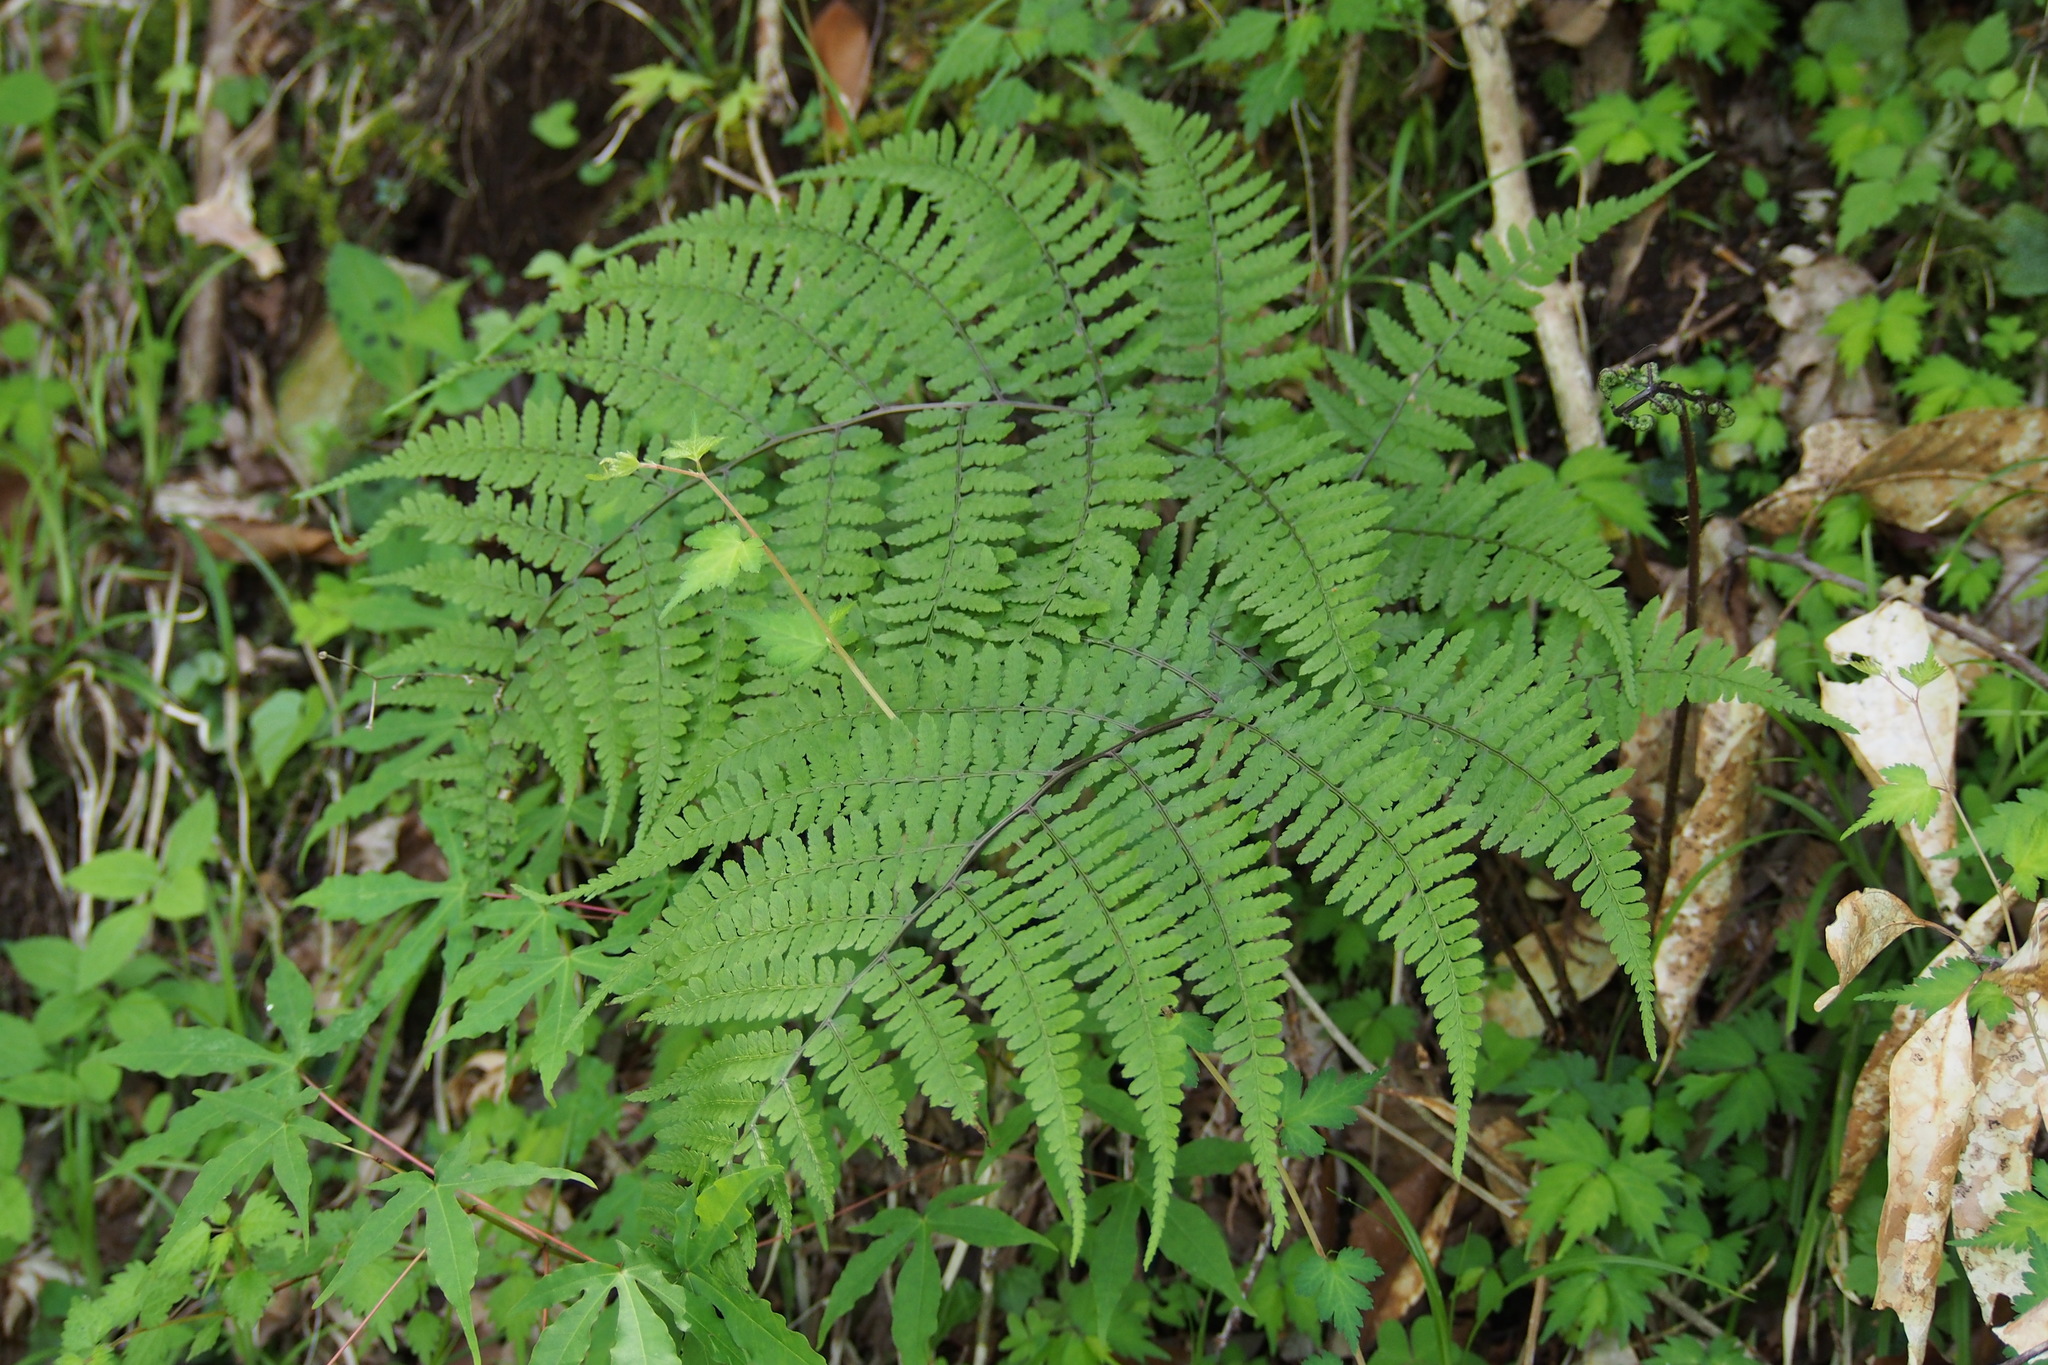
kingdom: Plantae
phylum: Tracheophyta
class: Polypodiopsida
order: Polypodiales
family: Athyriaceae
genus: Athyrium
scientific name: Athyrium vidalii
